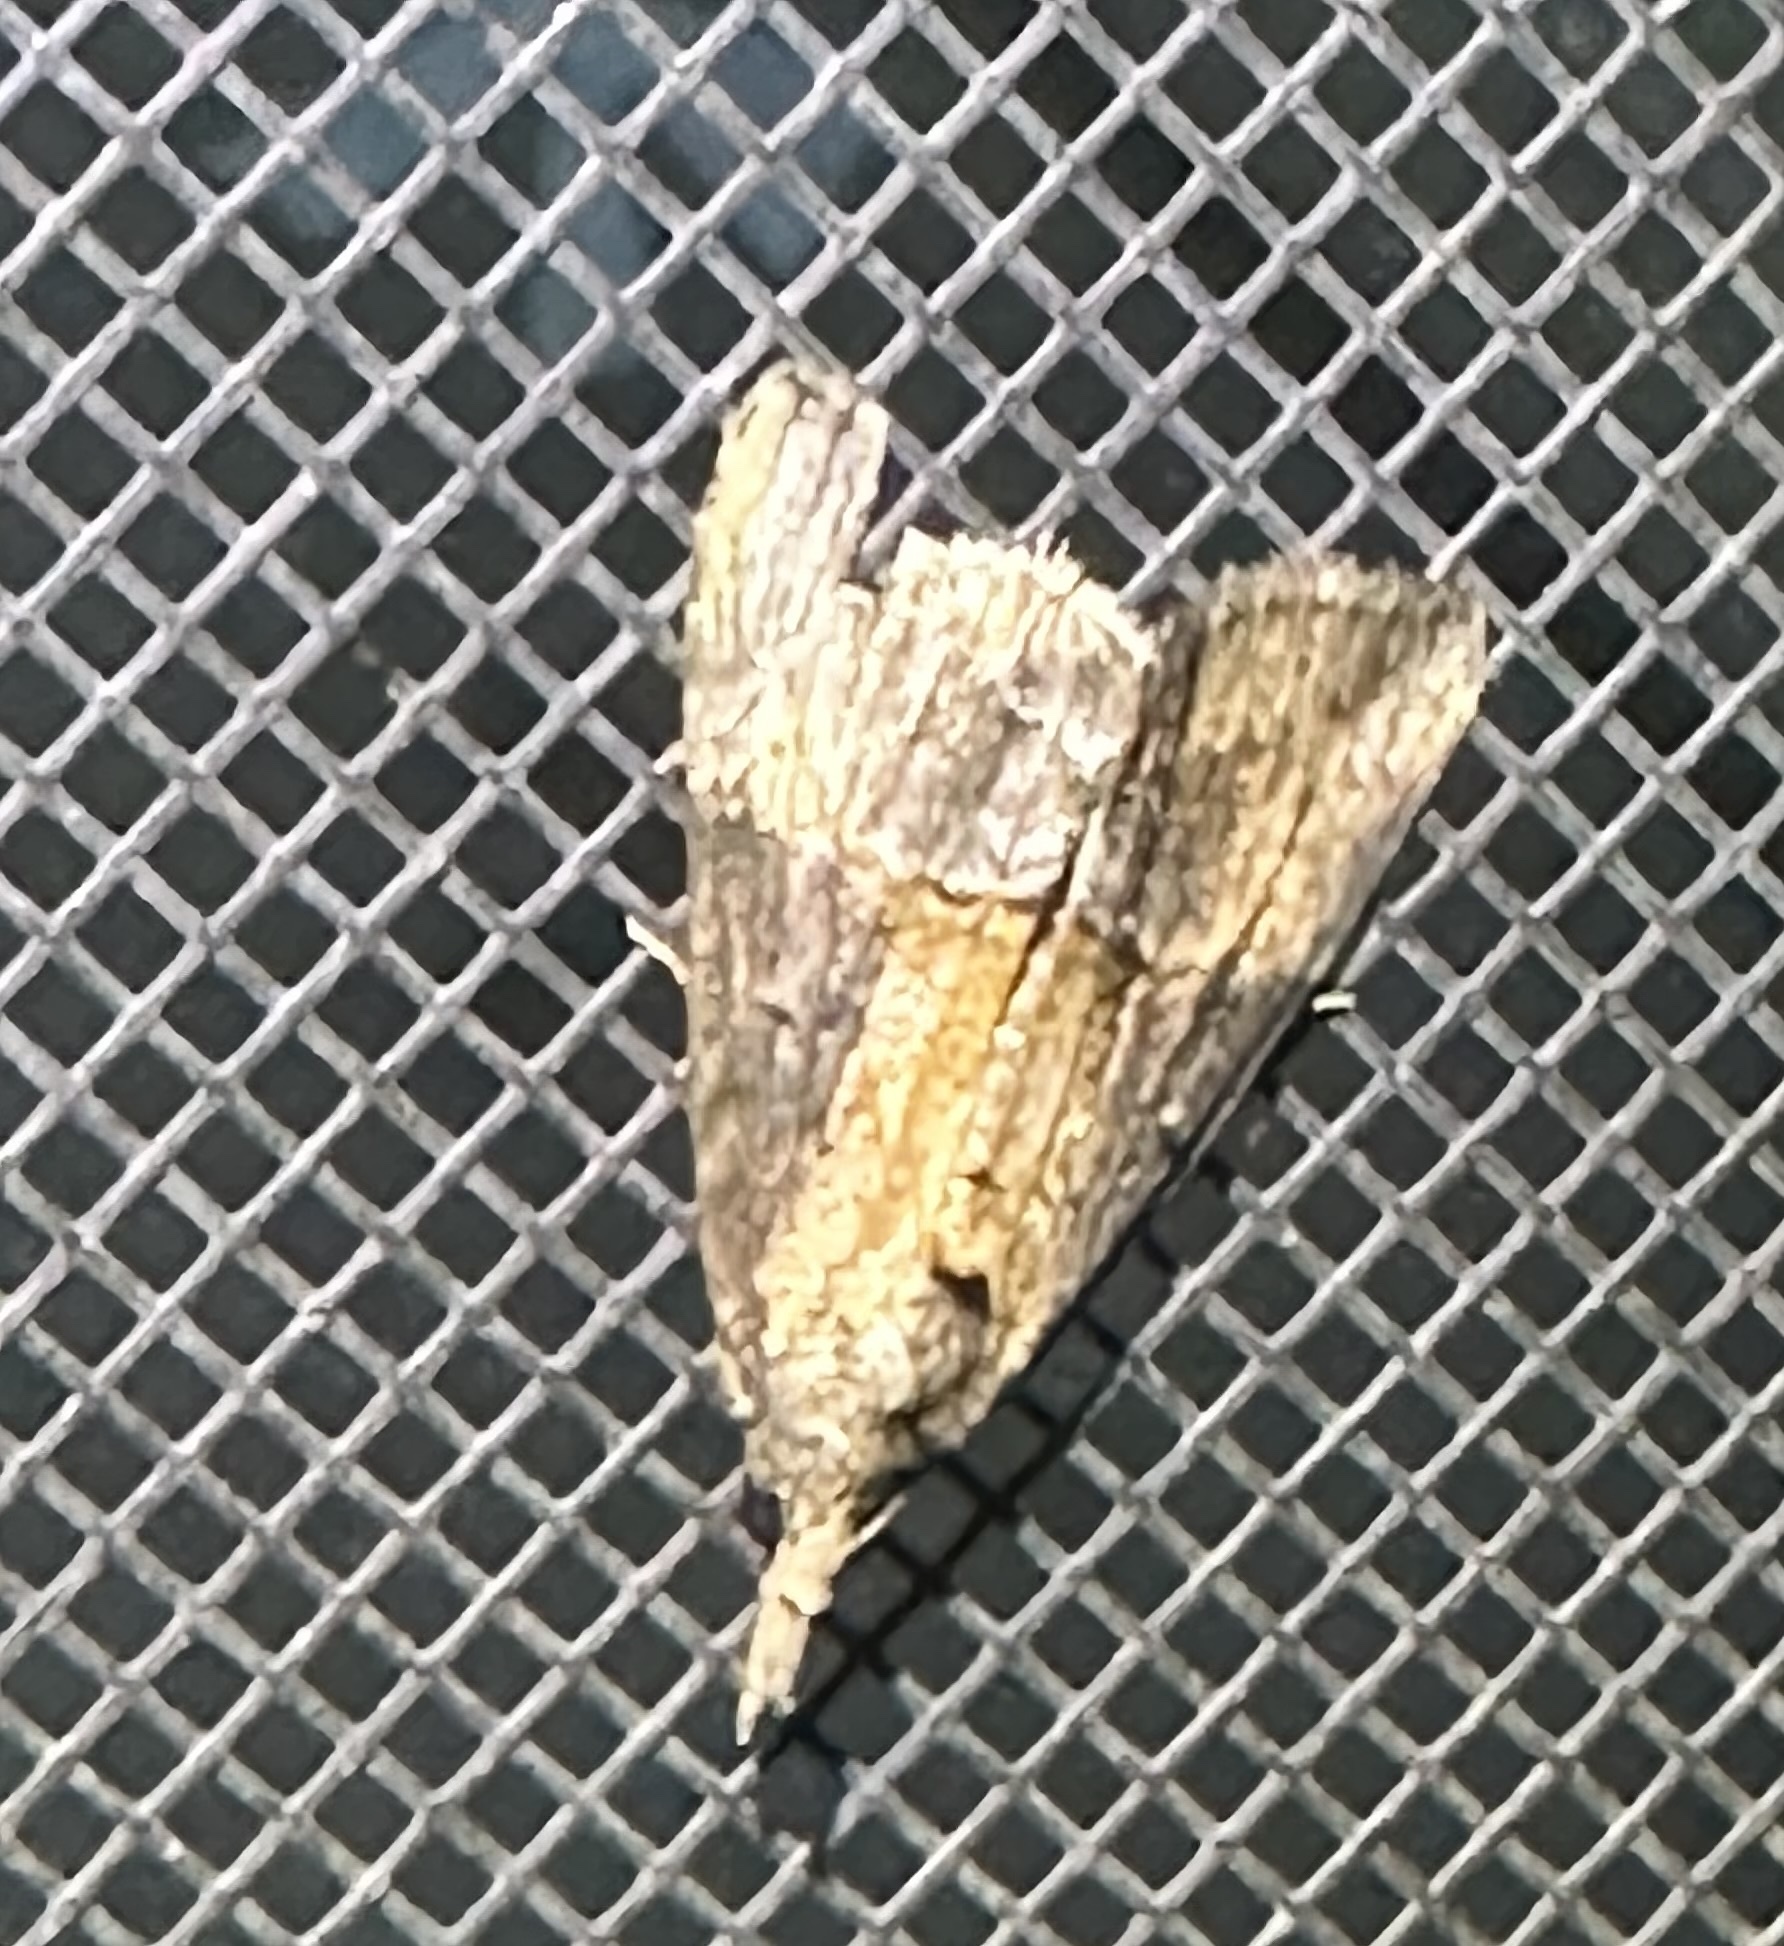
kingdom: Animalia
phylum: Arthropoda
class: Insecta
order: Lepidoptera
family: Erebidae
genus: Hypena
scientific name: Hypena scabra
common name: Green cloverworm
